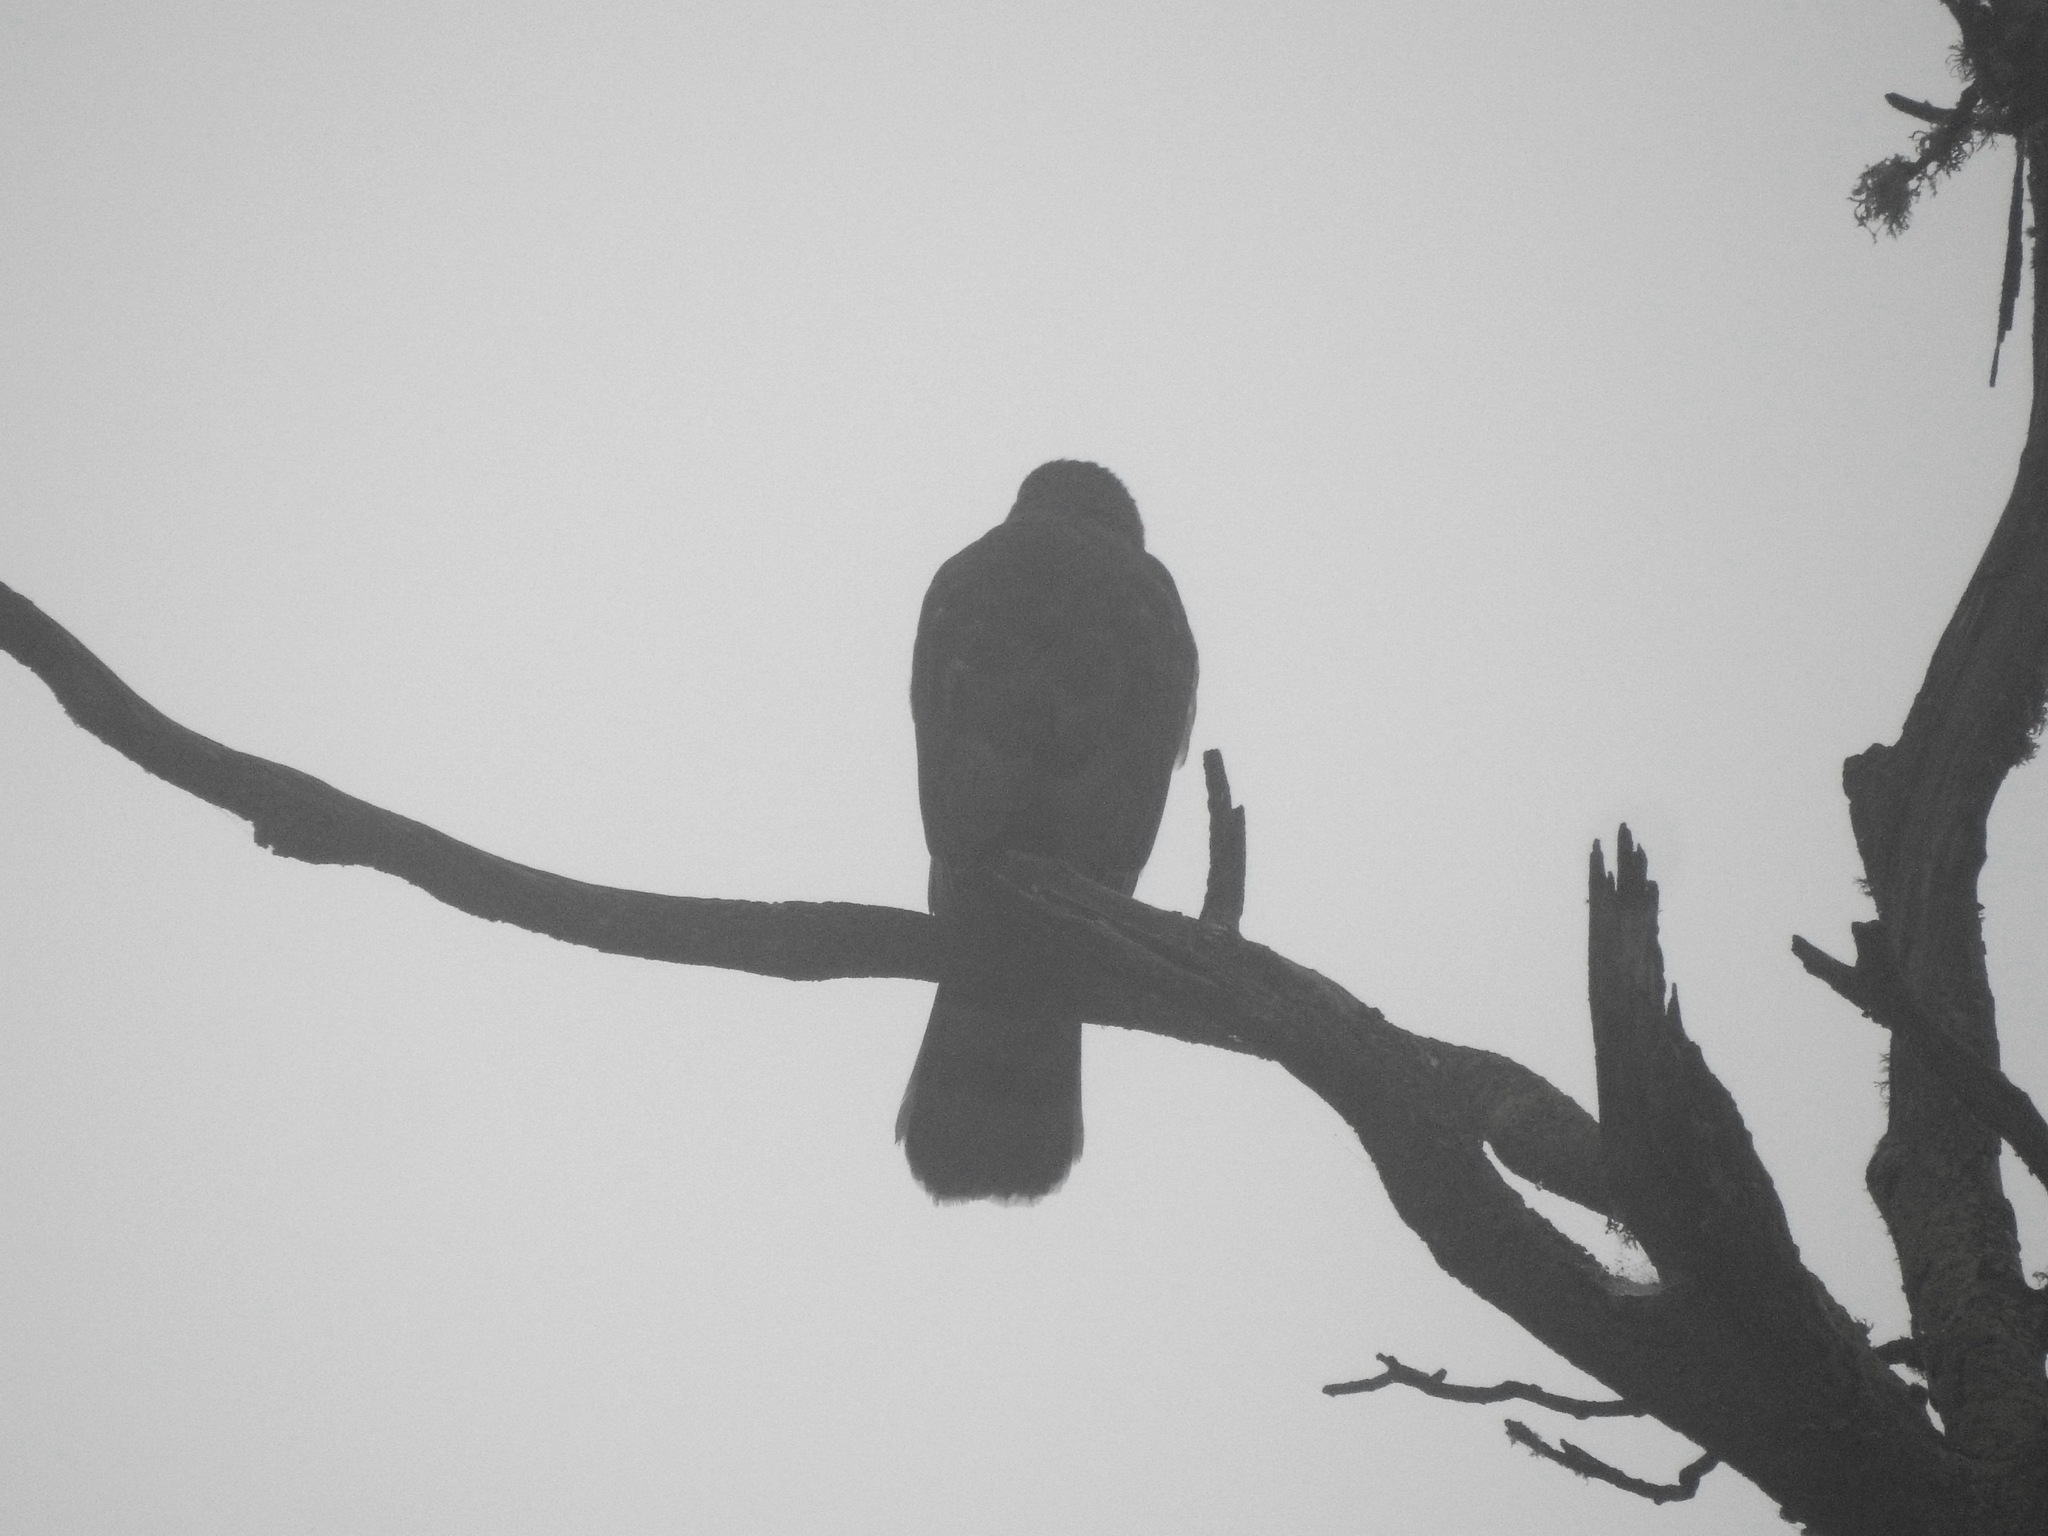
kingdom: Animalia
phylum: Chordata
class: Aves
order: Accipitriformes
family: Accipitridae
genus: Accipiter
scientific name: Accipiter cooperii
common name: Cooper's hawk
